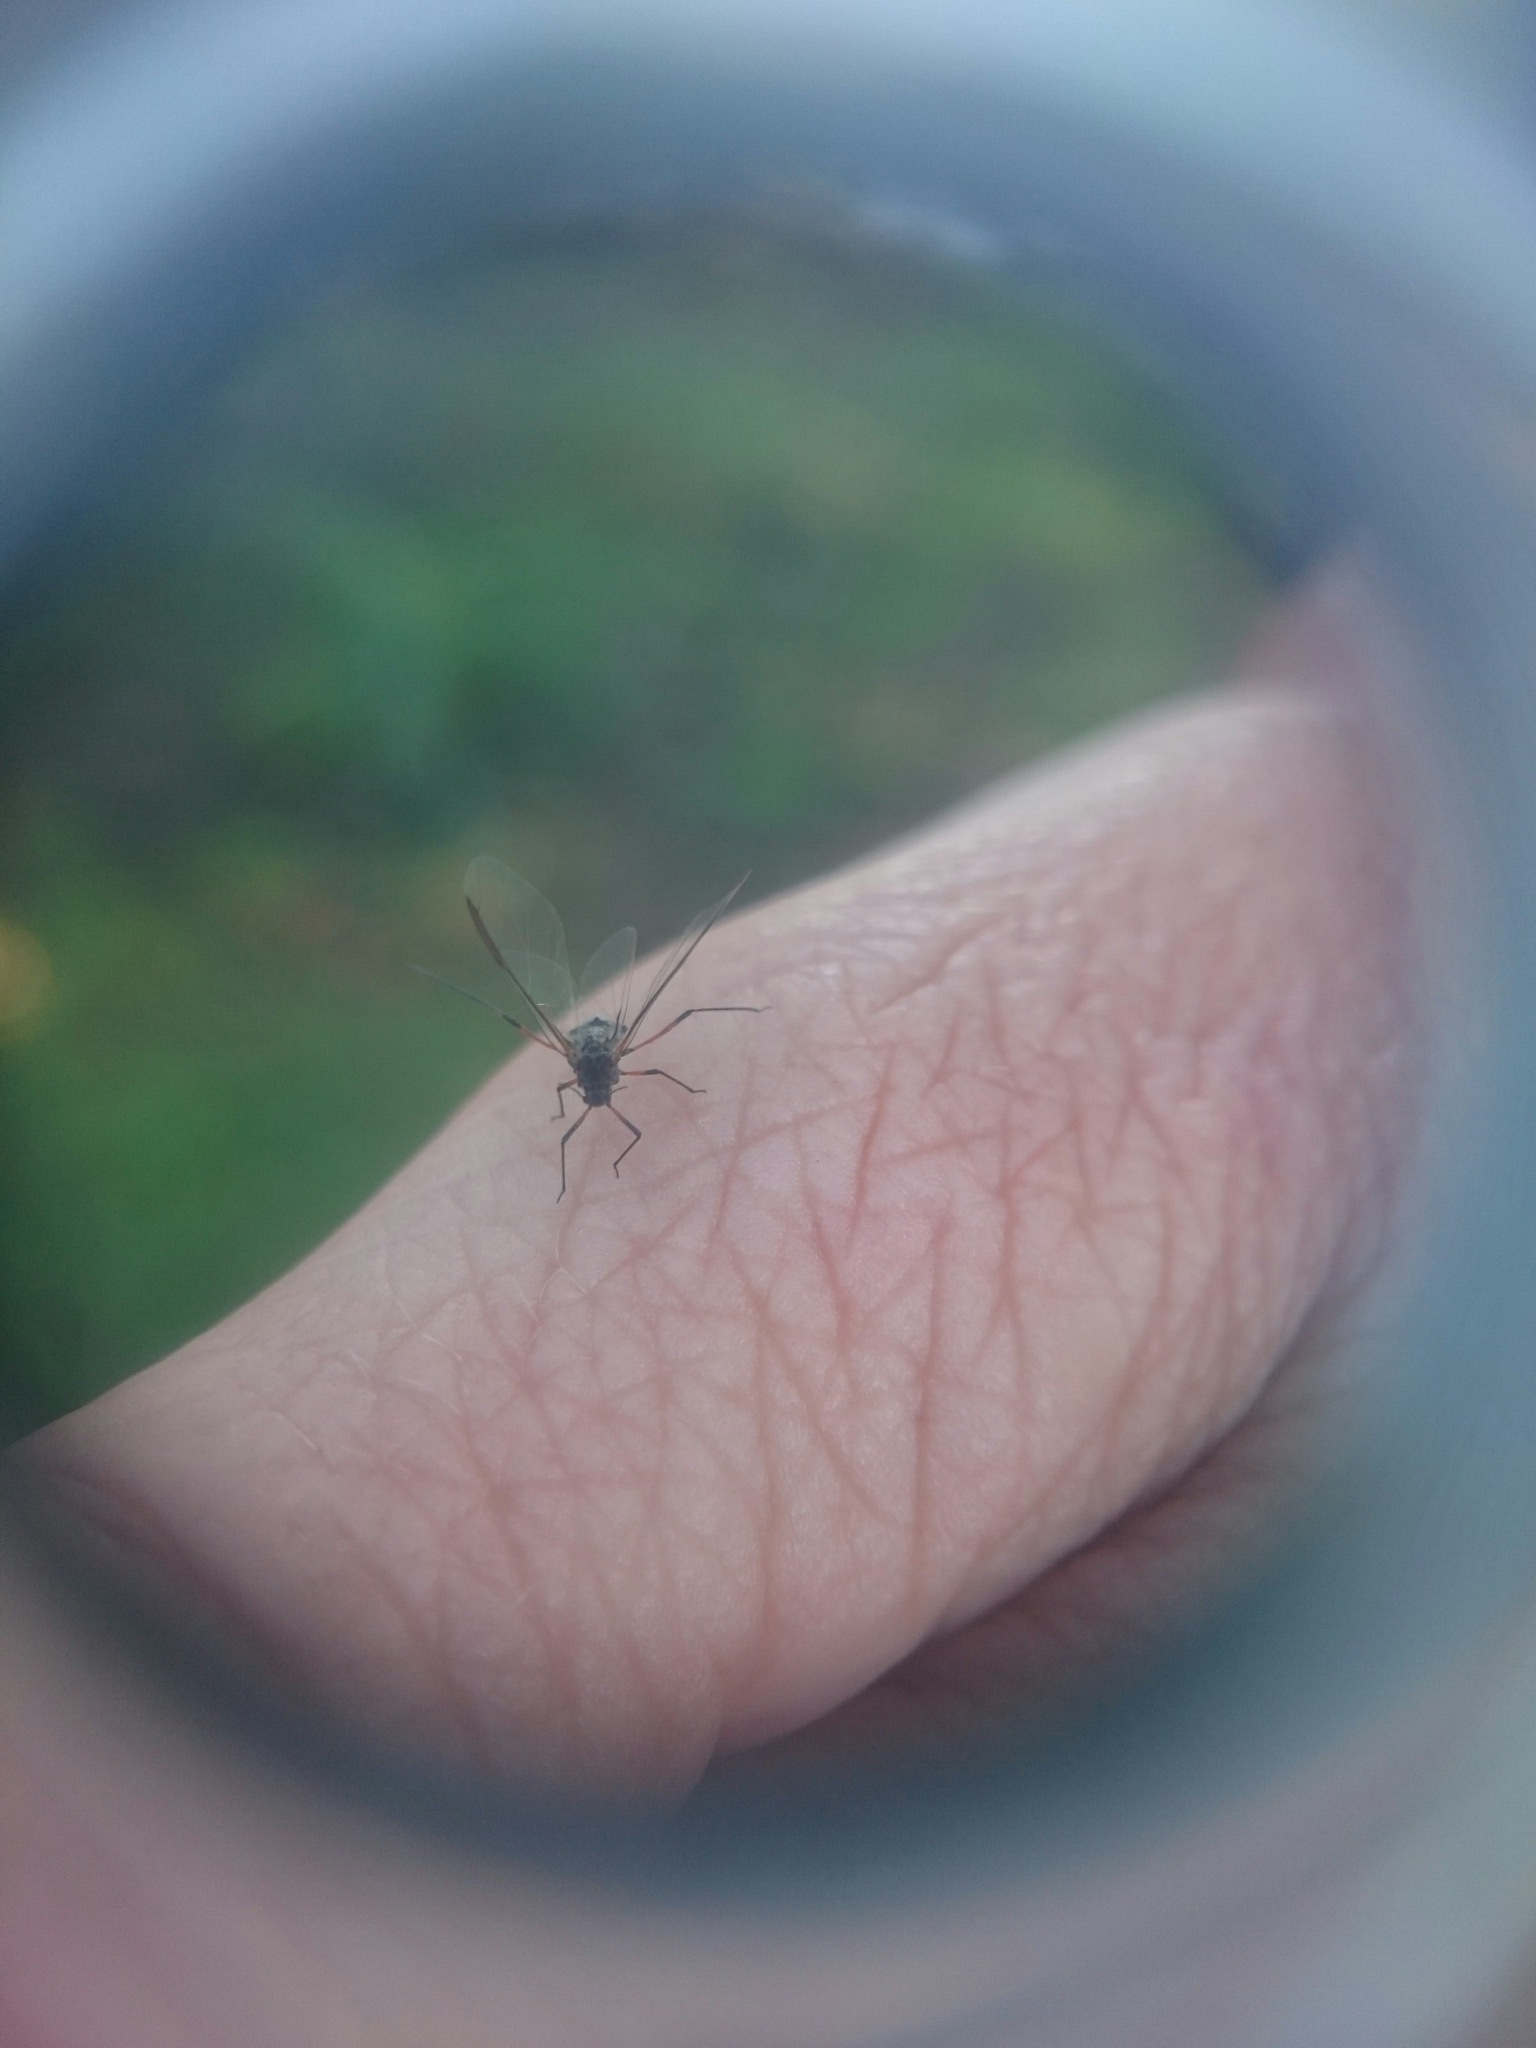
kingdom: Animalia
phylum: Arthropoda
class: Insecta
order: Hemiptera
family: Aphididae
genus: Tuberolachnus
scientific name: Tuberolachnus salignus
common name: Giant willow aphid
